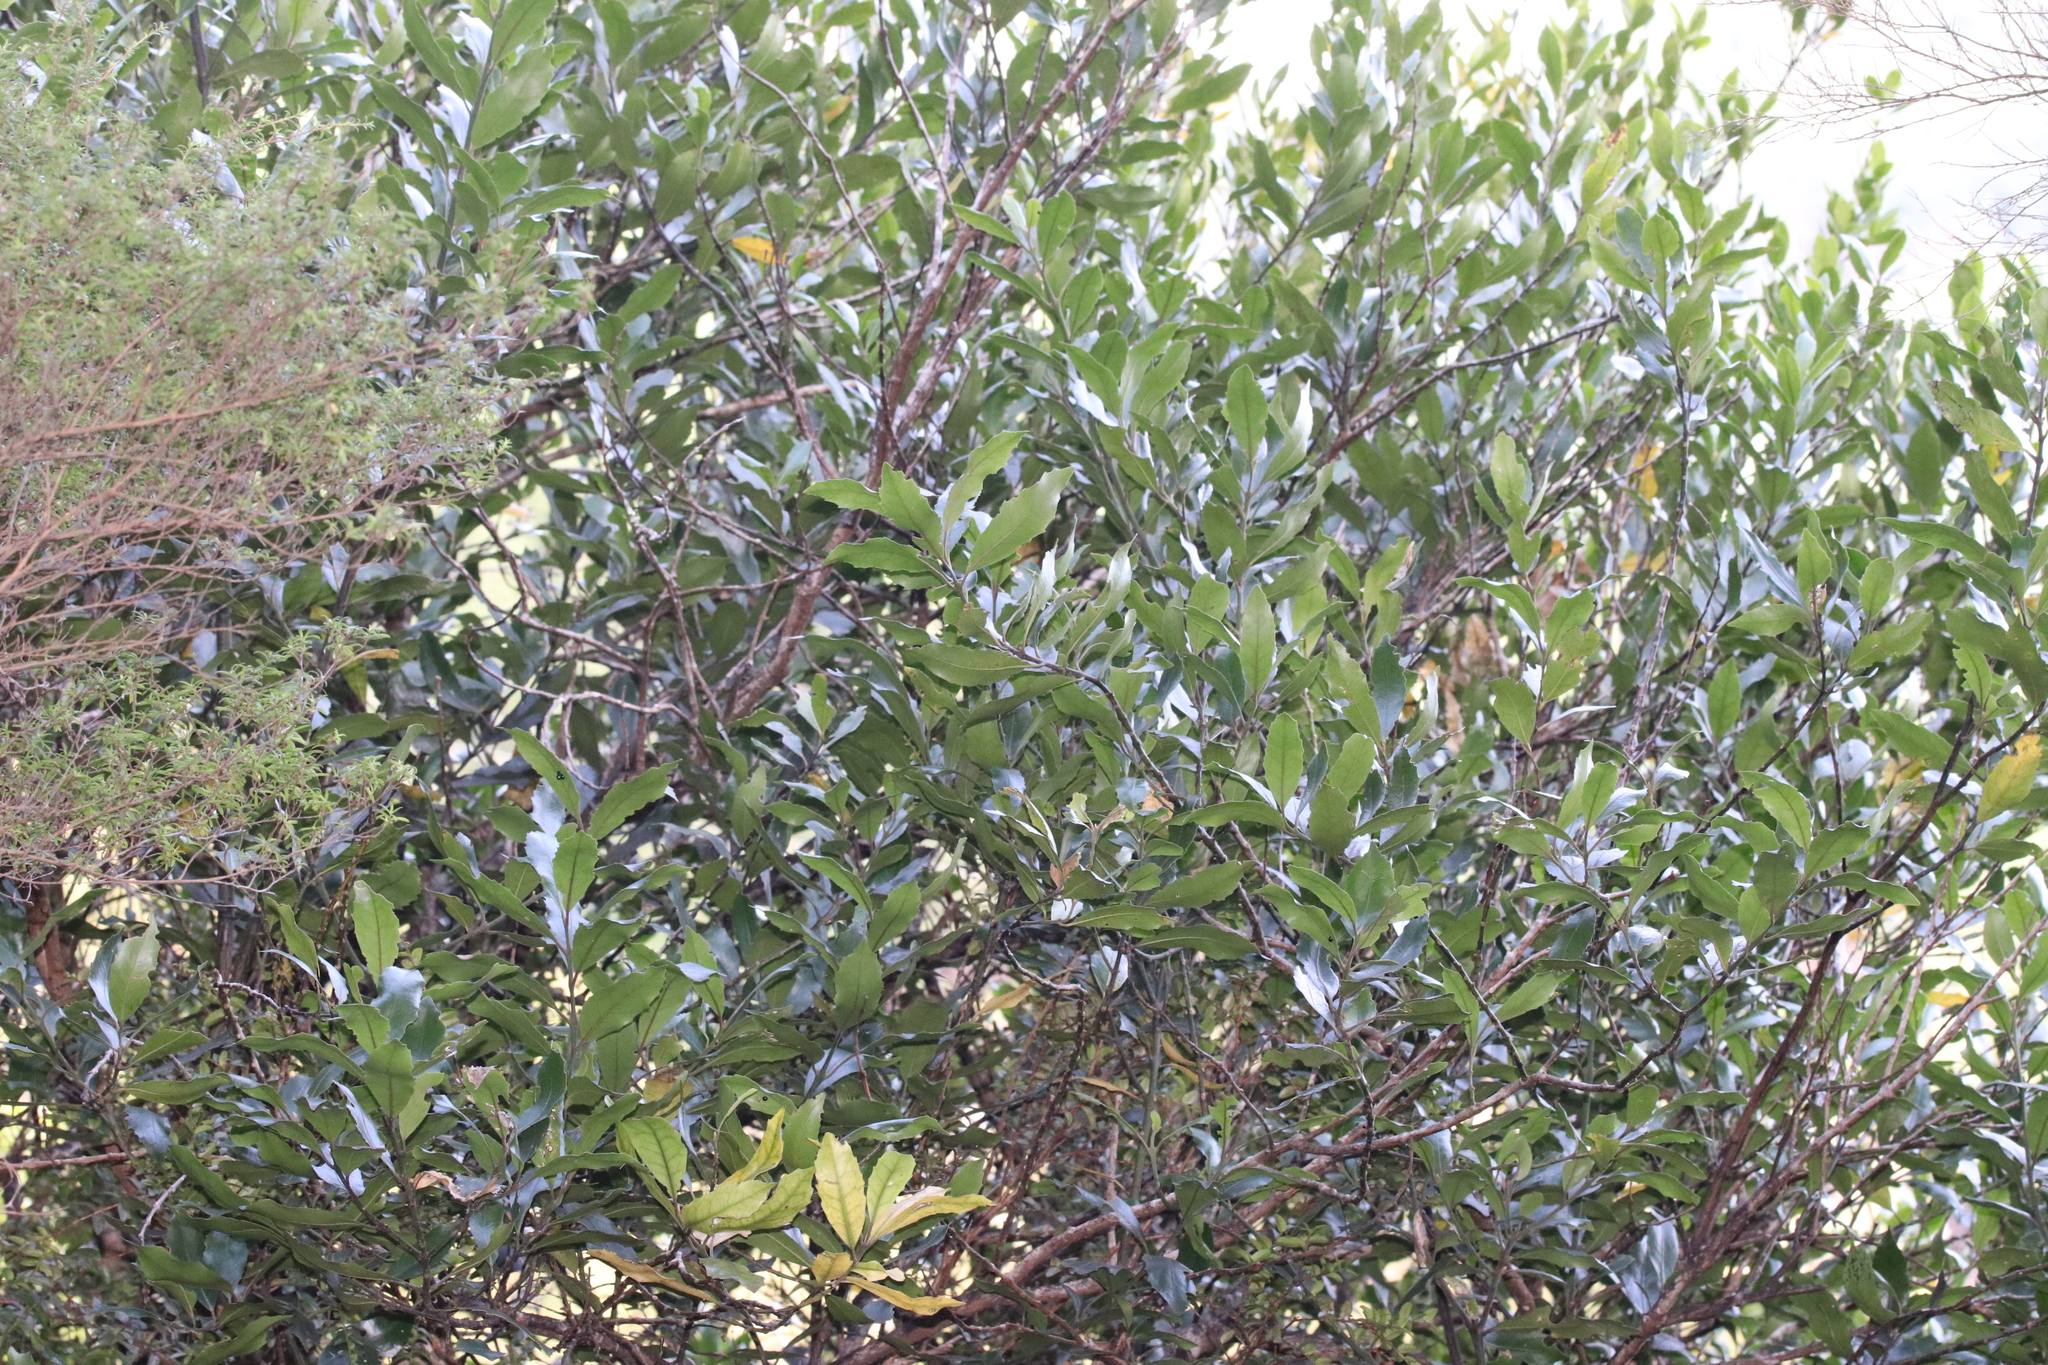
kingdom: Plantae
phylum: Tracheophyta
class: Magnoliopsida
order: Laurales
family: Monimiaceae
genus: Hedycarya
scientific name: Hedycarya arborea
